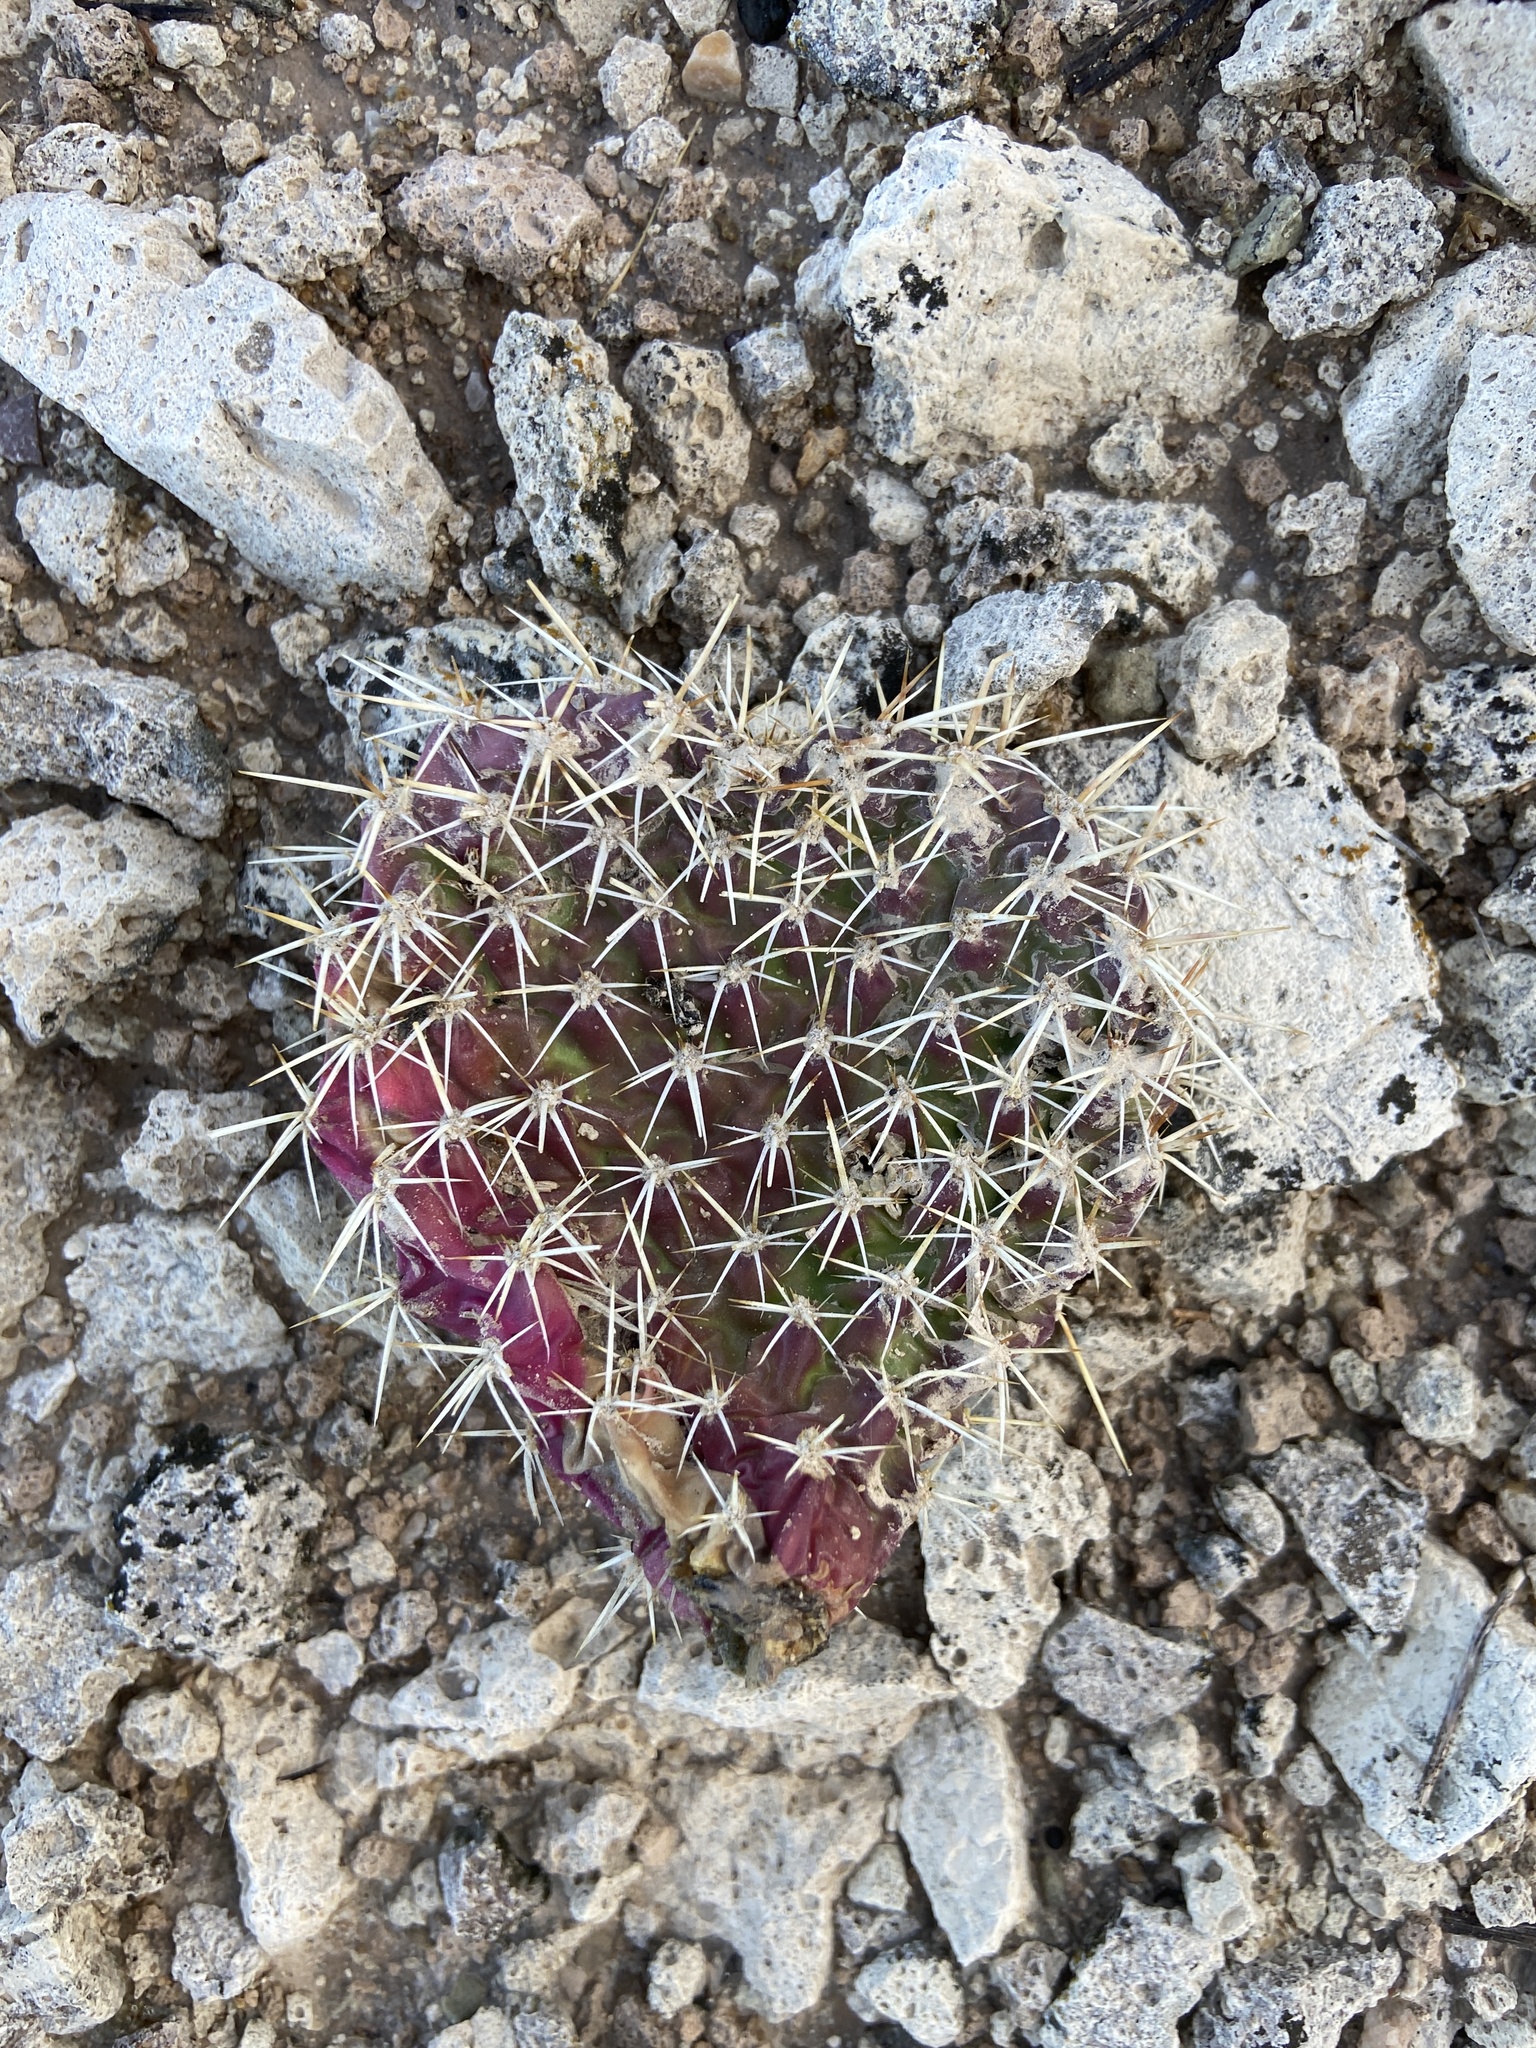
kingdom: Plantae
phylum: Tracheophyta
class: Magnoliopsida
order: Caryophyllales
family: Cactaceae
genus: Opuntia
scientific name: Opuntia polyacantha
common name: Plains prickly-pear
